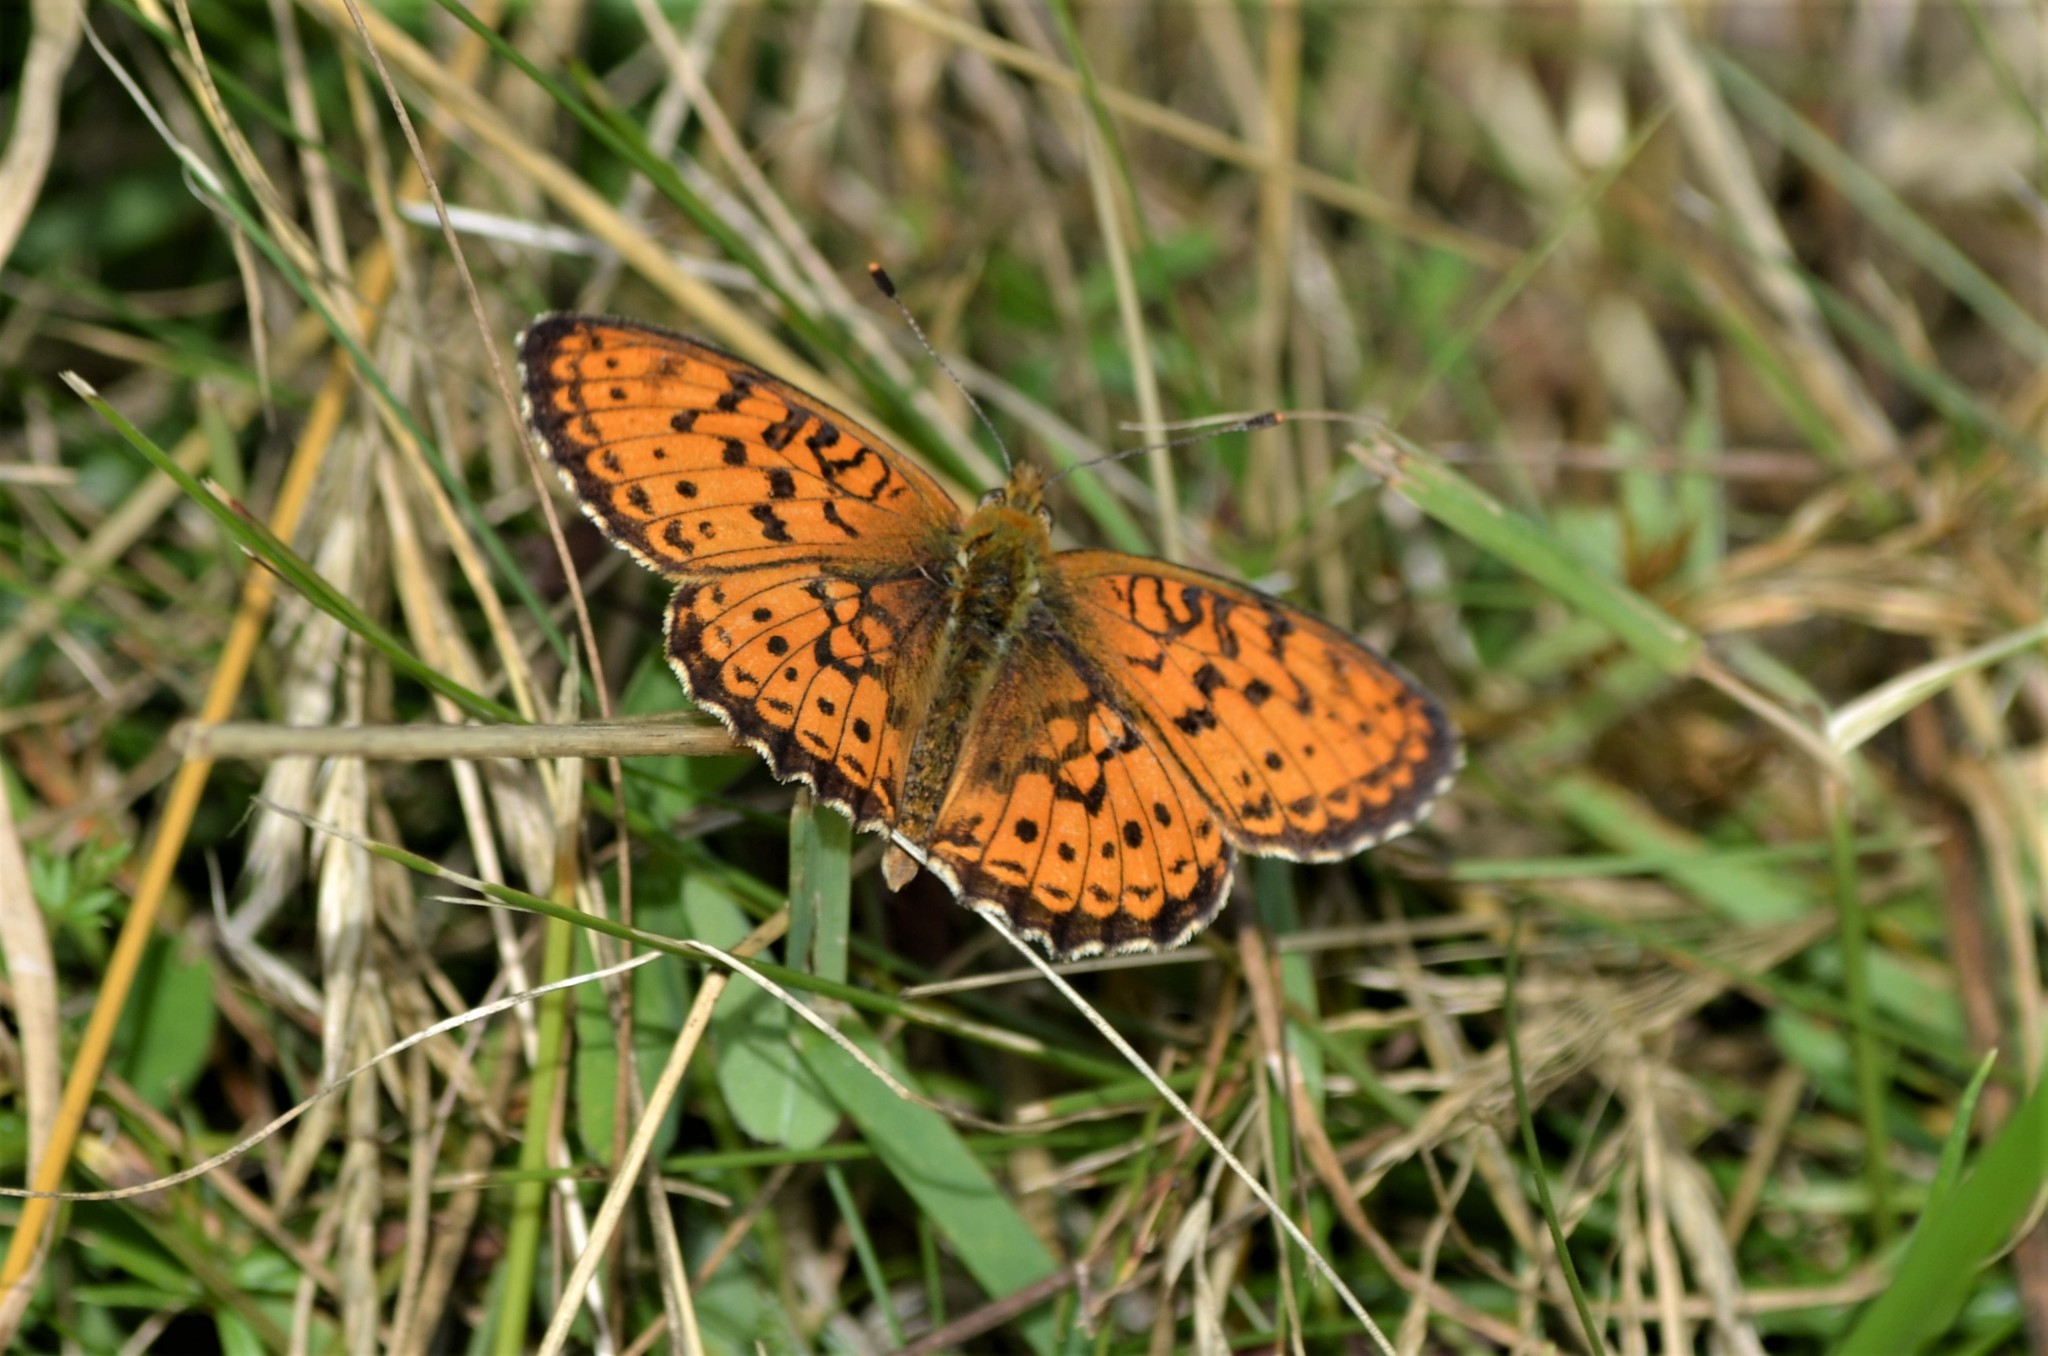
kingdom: Animalia
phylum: Arthropoda
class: Insecta
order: Lepidoptera
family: Nymphalidae
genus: Brenthis
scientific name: Brenthis ino
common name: Lesser marbled fritillary
